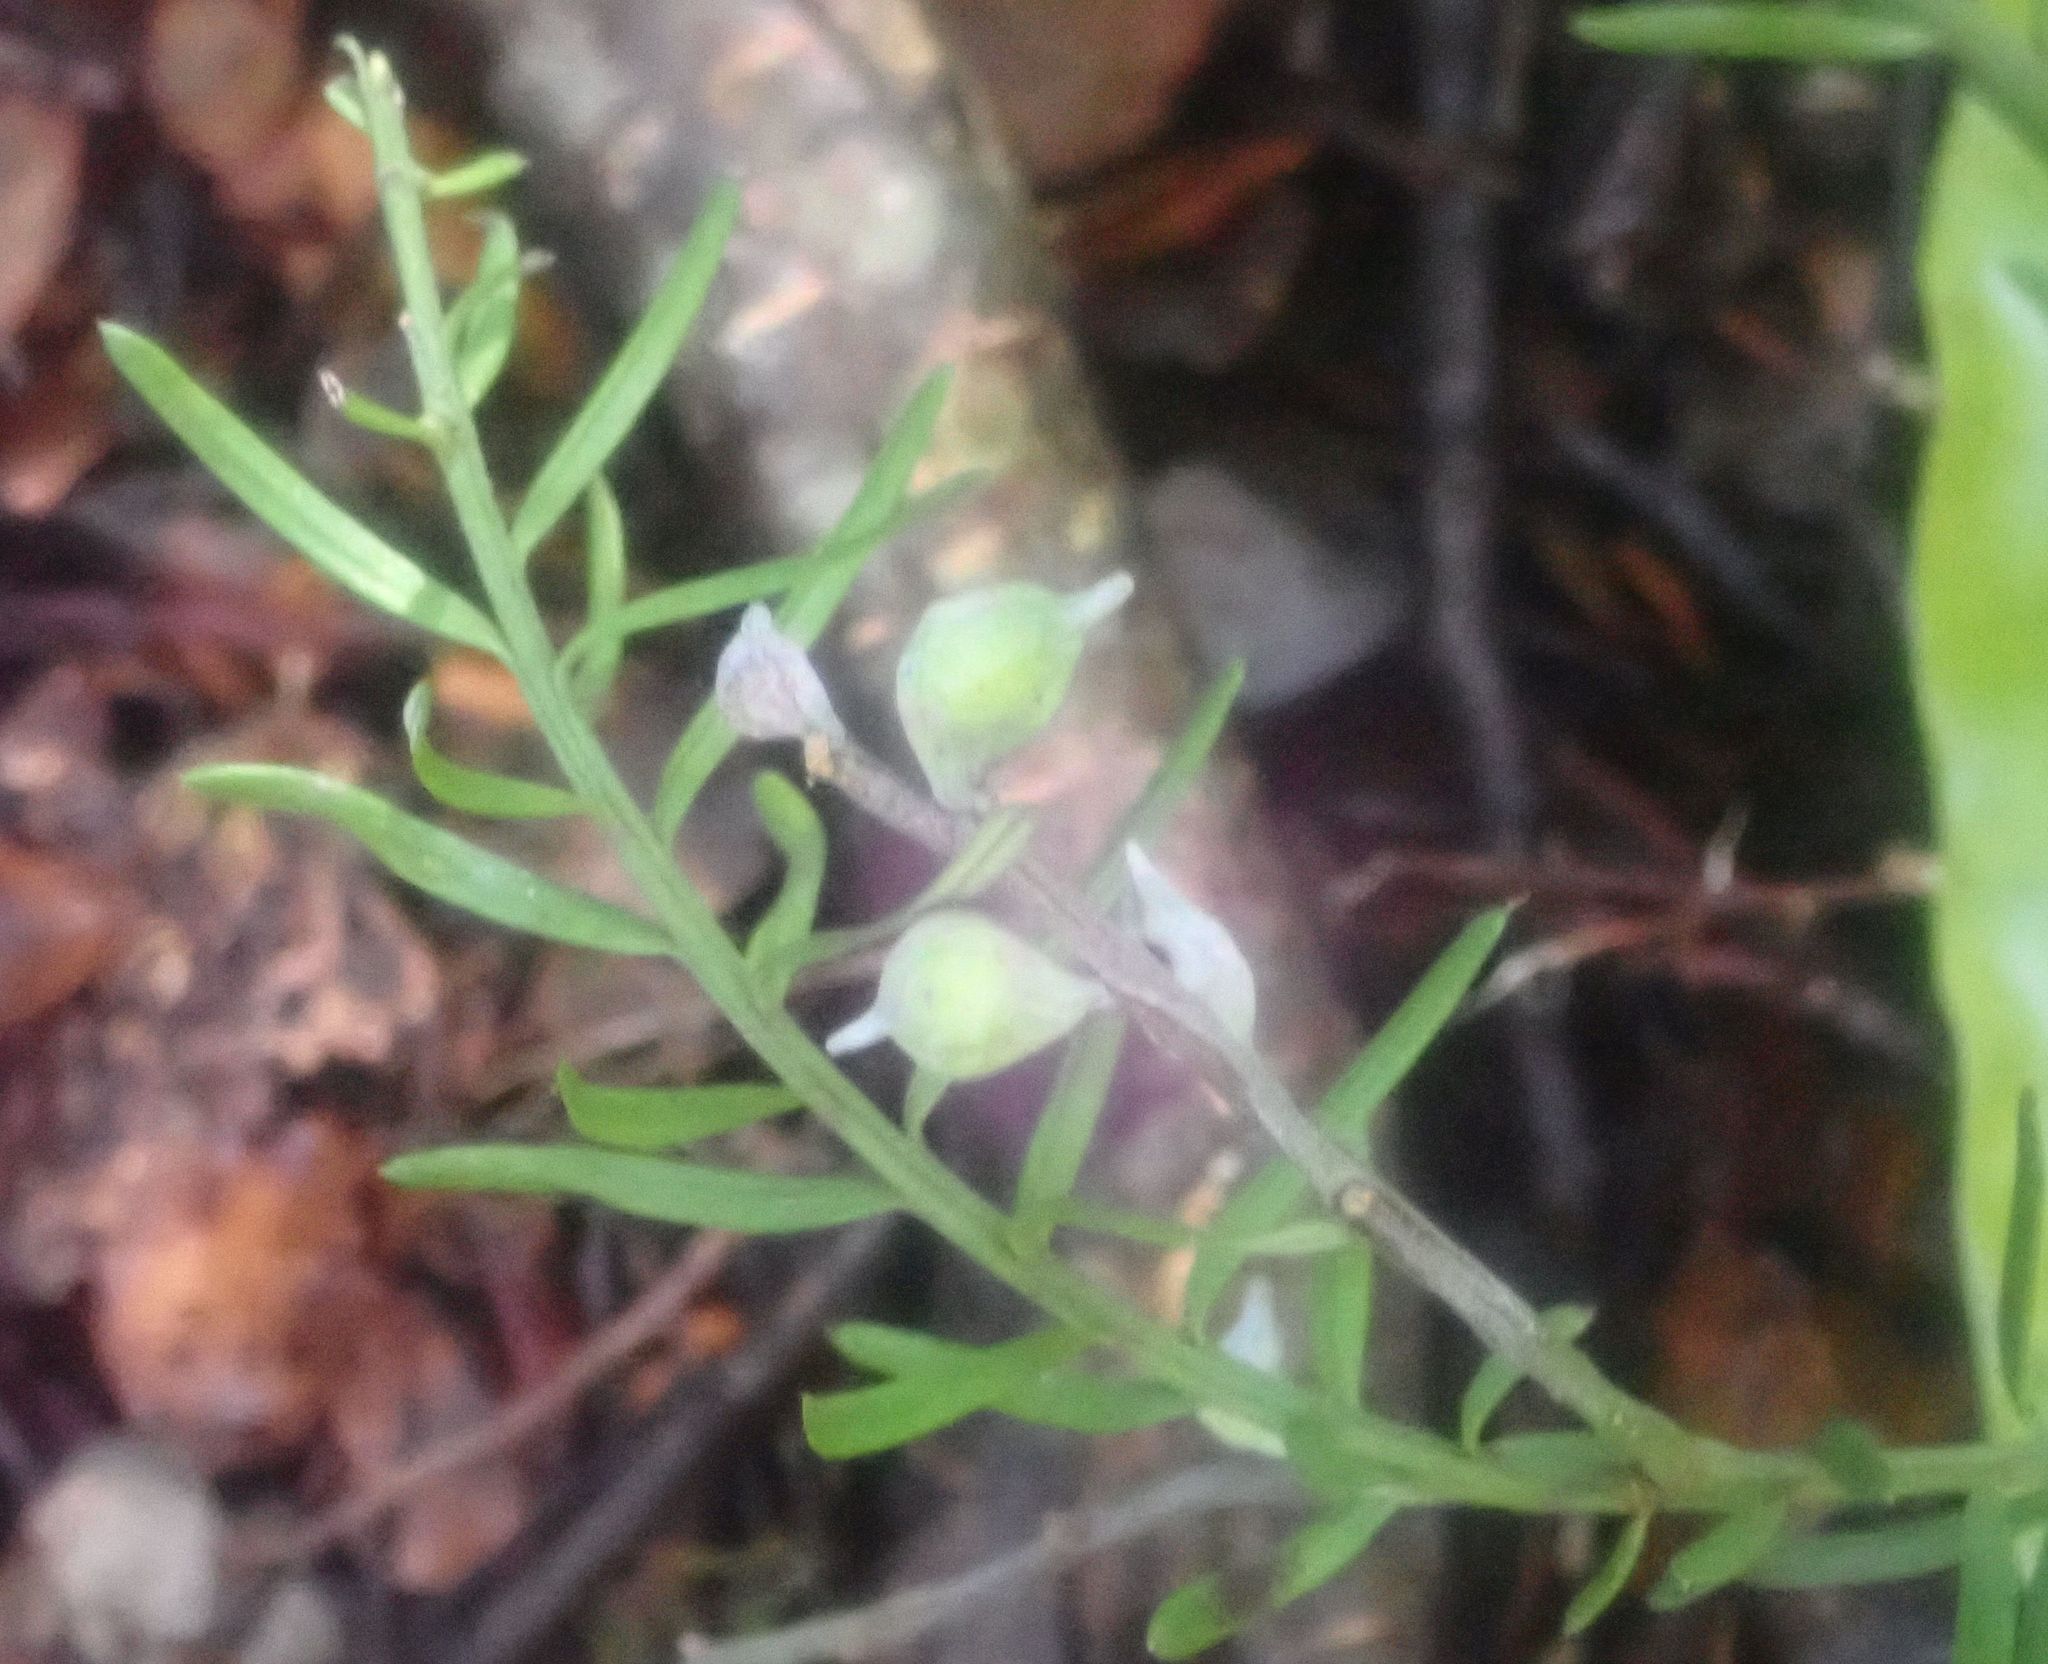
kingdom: Plantae
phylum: Tracheophyta
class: Pinopsida
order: Pinales
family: Podocarpaceae
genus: Prumnopitys
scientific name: Prumnopitys taxifolia
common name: Matai
